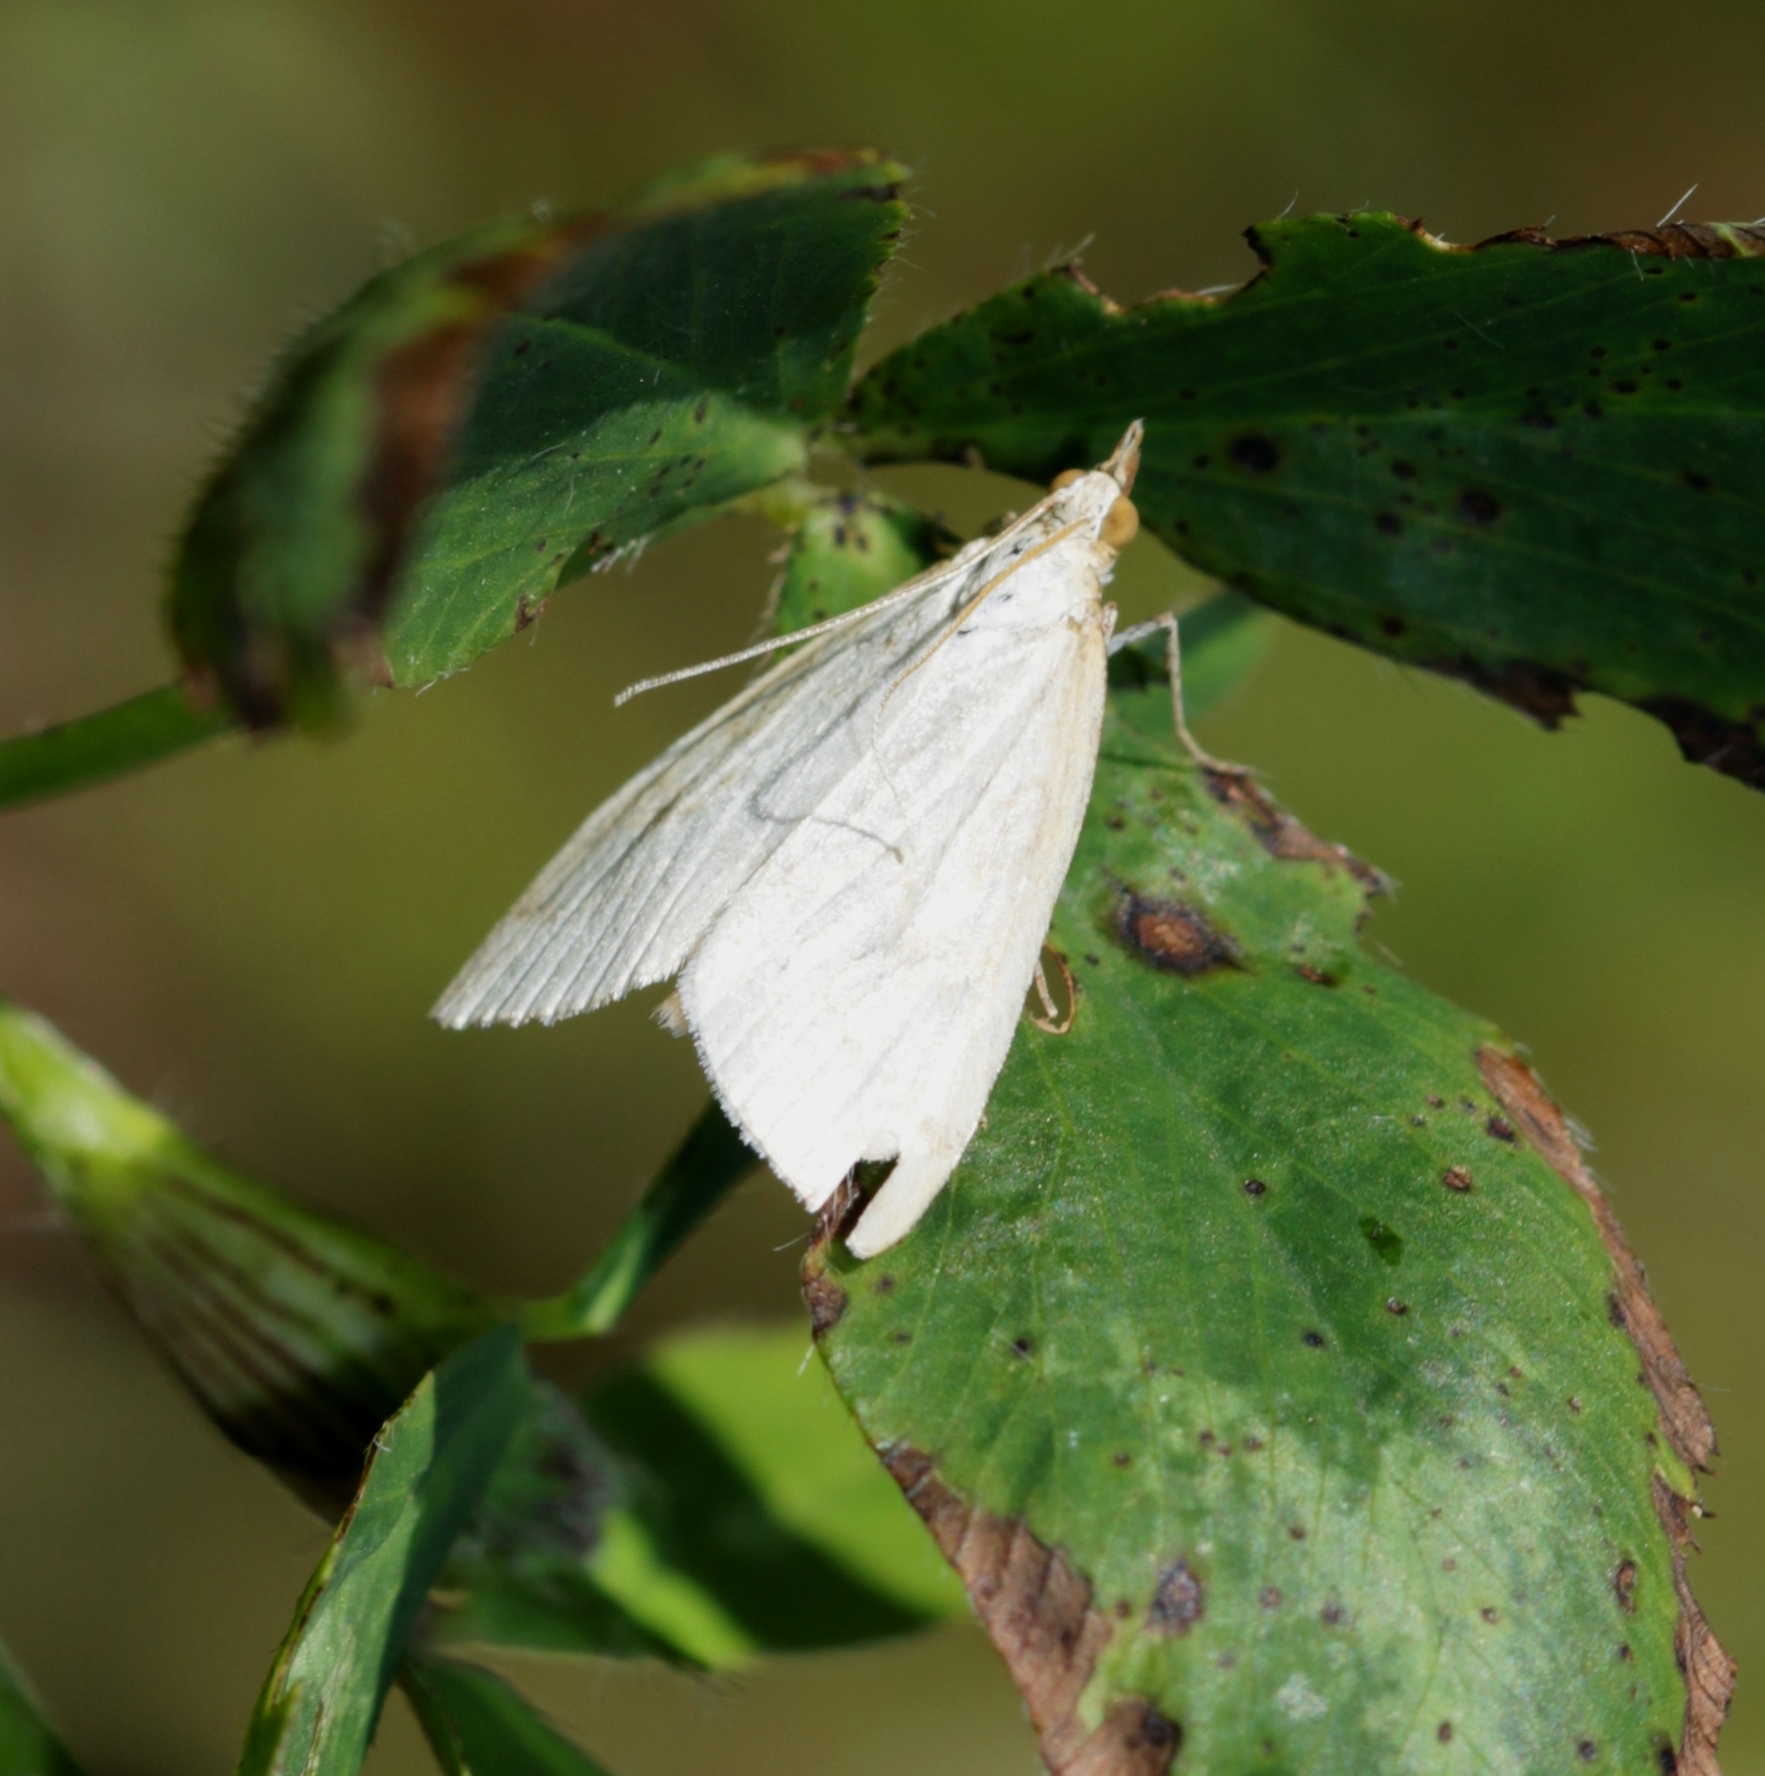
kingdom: Animalia
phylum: Arthropoda
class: Insecta
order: Lepidoptera
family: Crambidae
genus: Udea
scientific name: Udea lutealis
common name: Pale straw pearl
